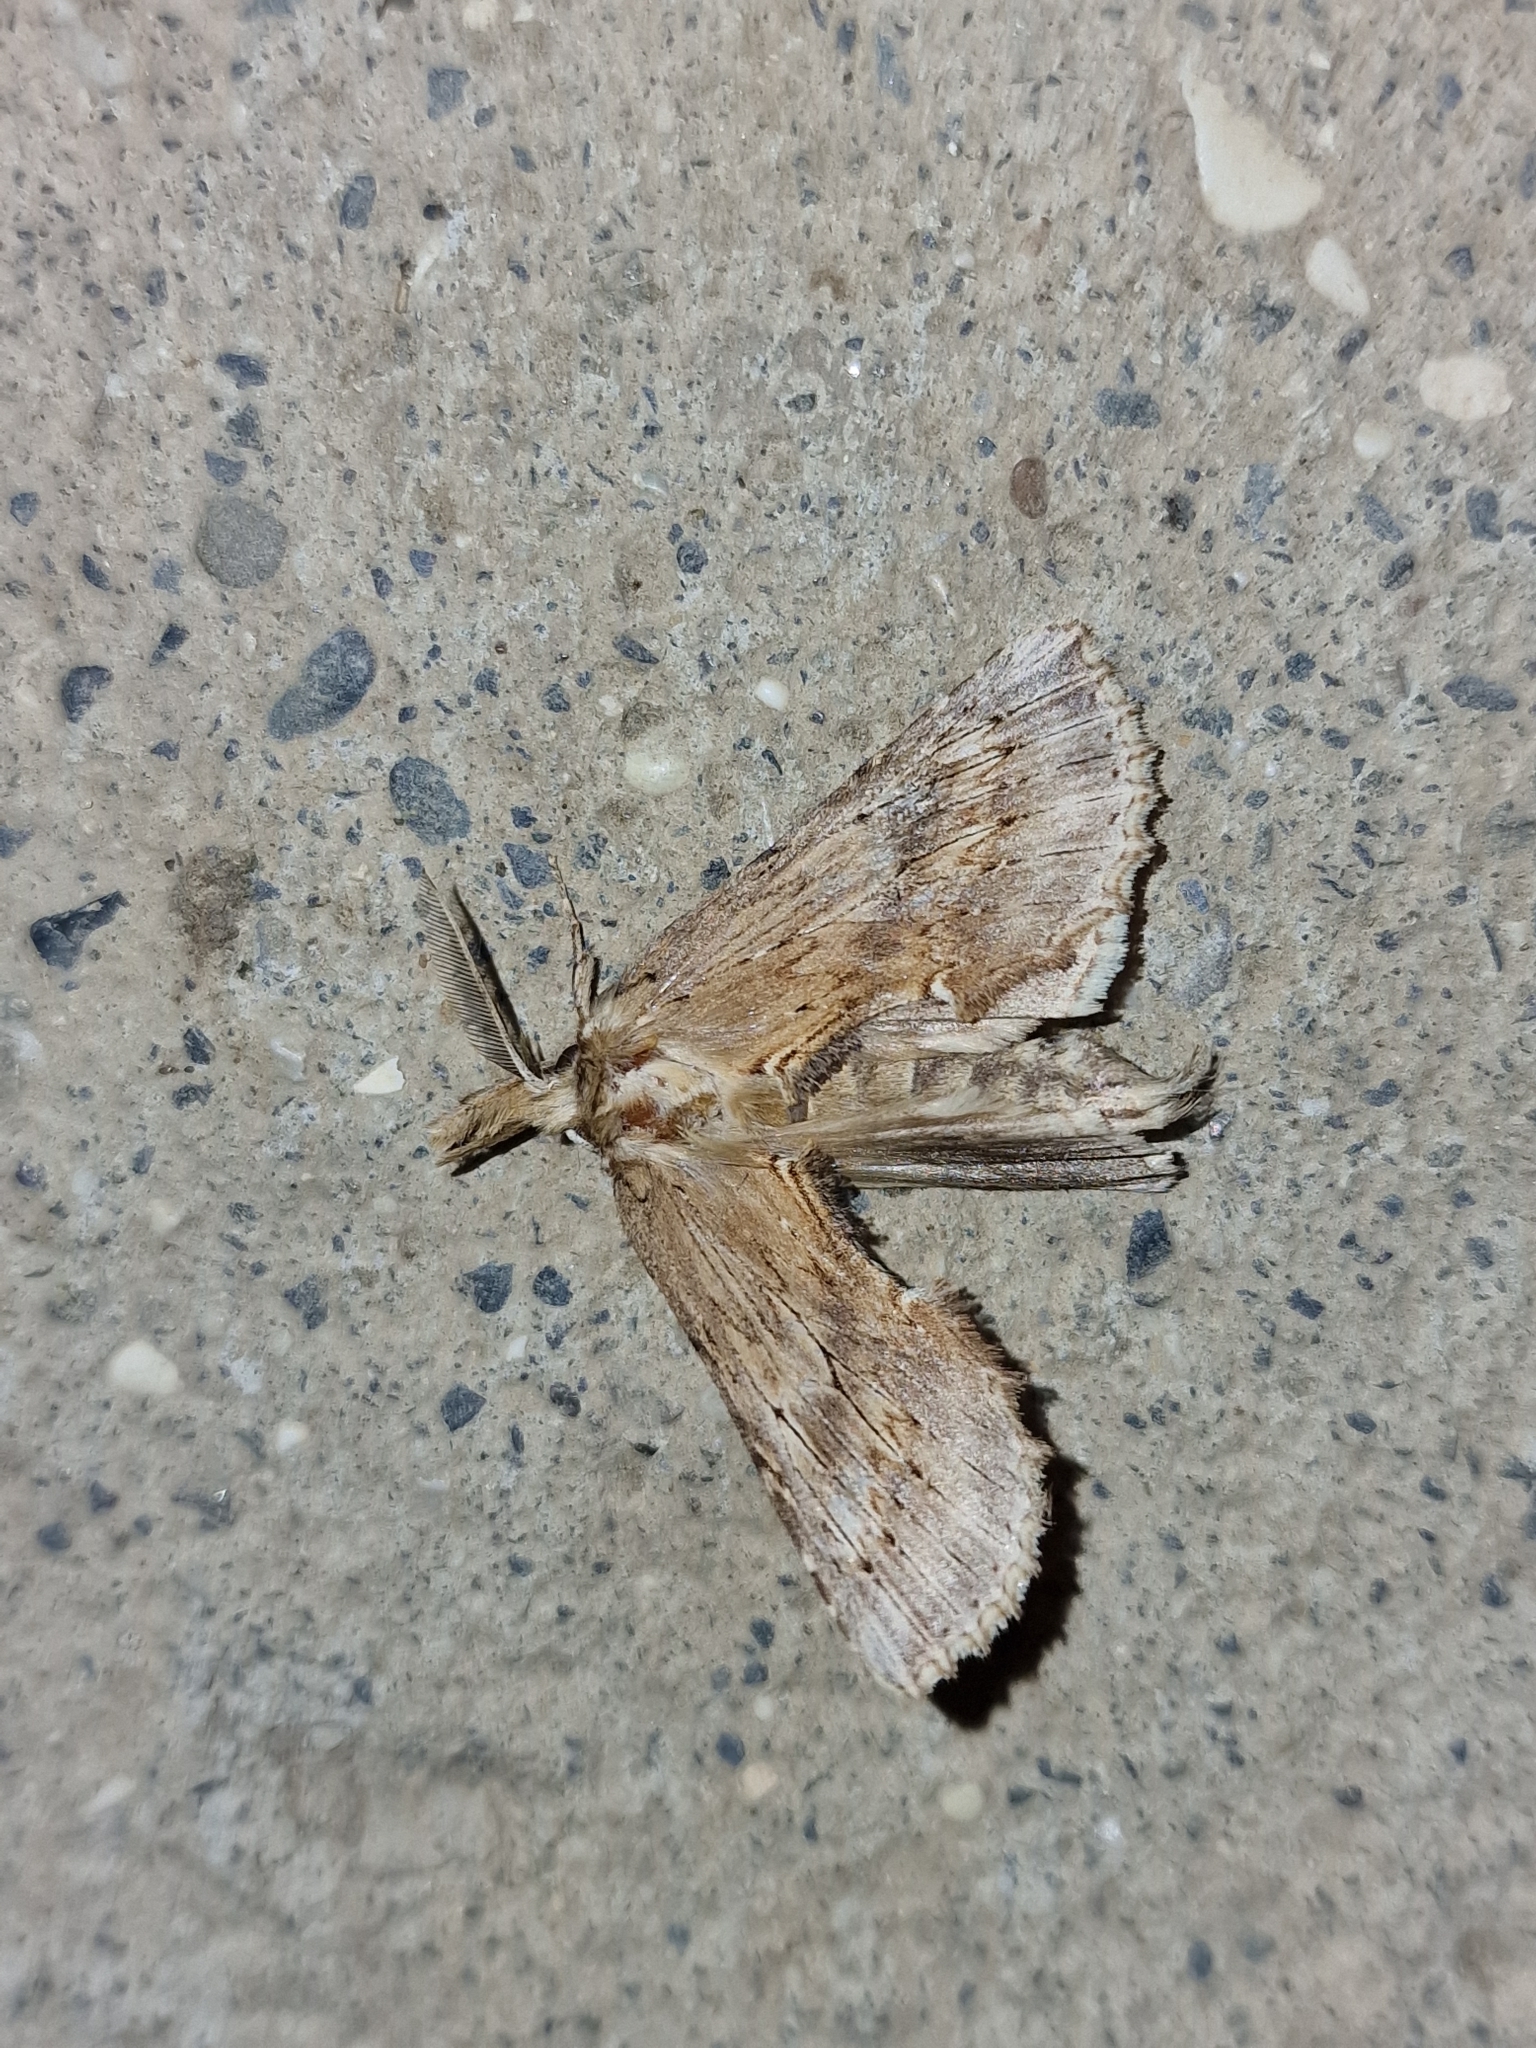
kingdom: Animalia
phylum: Arthropoda
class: Insecta
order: Lepidoptera
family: Notodontidae
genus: Pterostoma
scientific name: Pterostoma palpina
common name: Pale prominent
